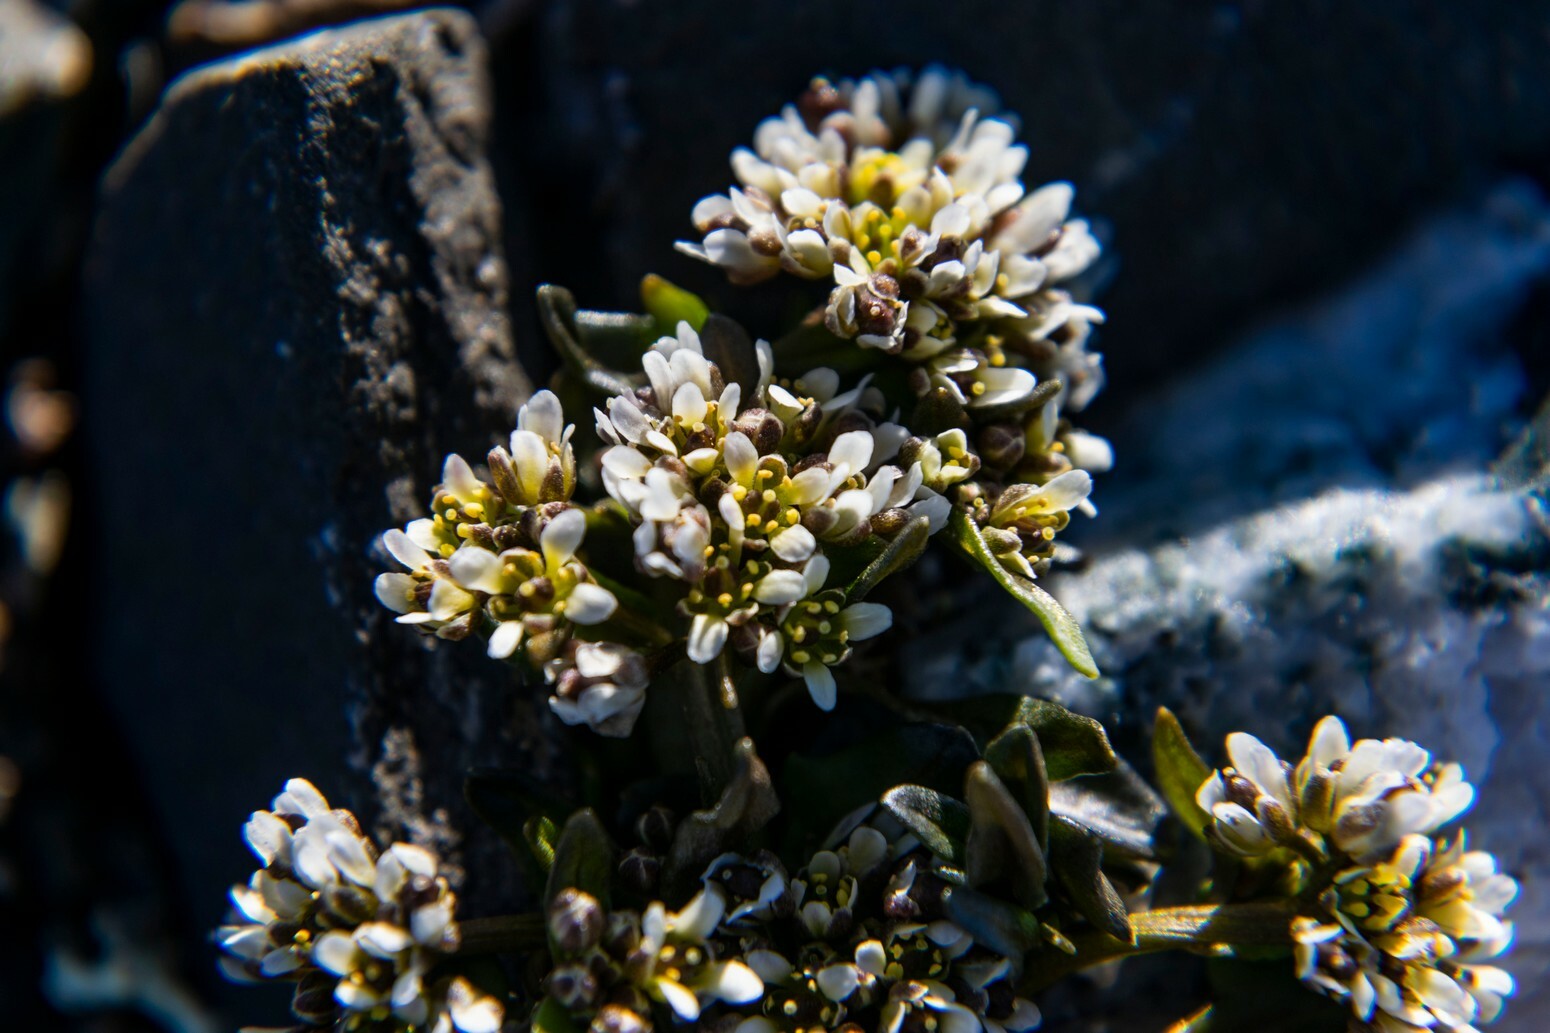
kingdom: Plantae
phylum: Tracheophyta
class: Magnoliopsida
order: Brassicales
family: Brassicaceae
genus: Cochlearia
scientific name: Cochlearia groenlandica
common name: Danish scurvygrass
